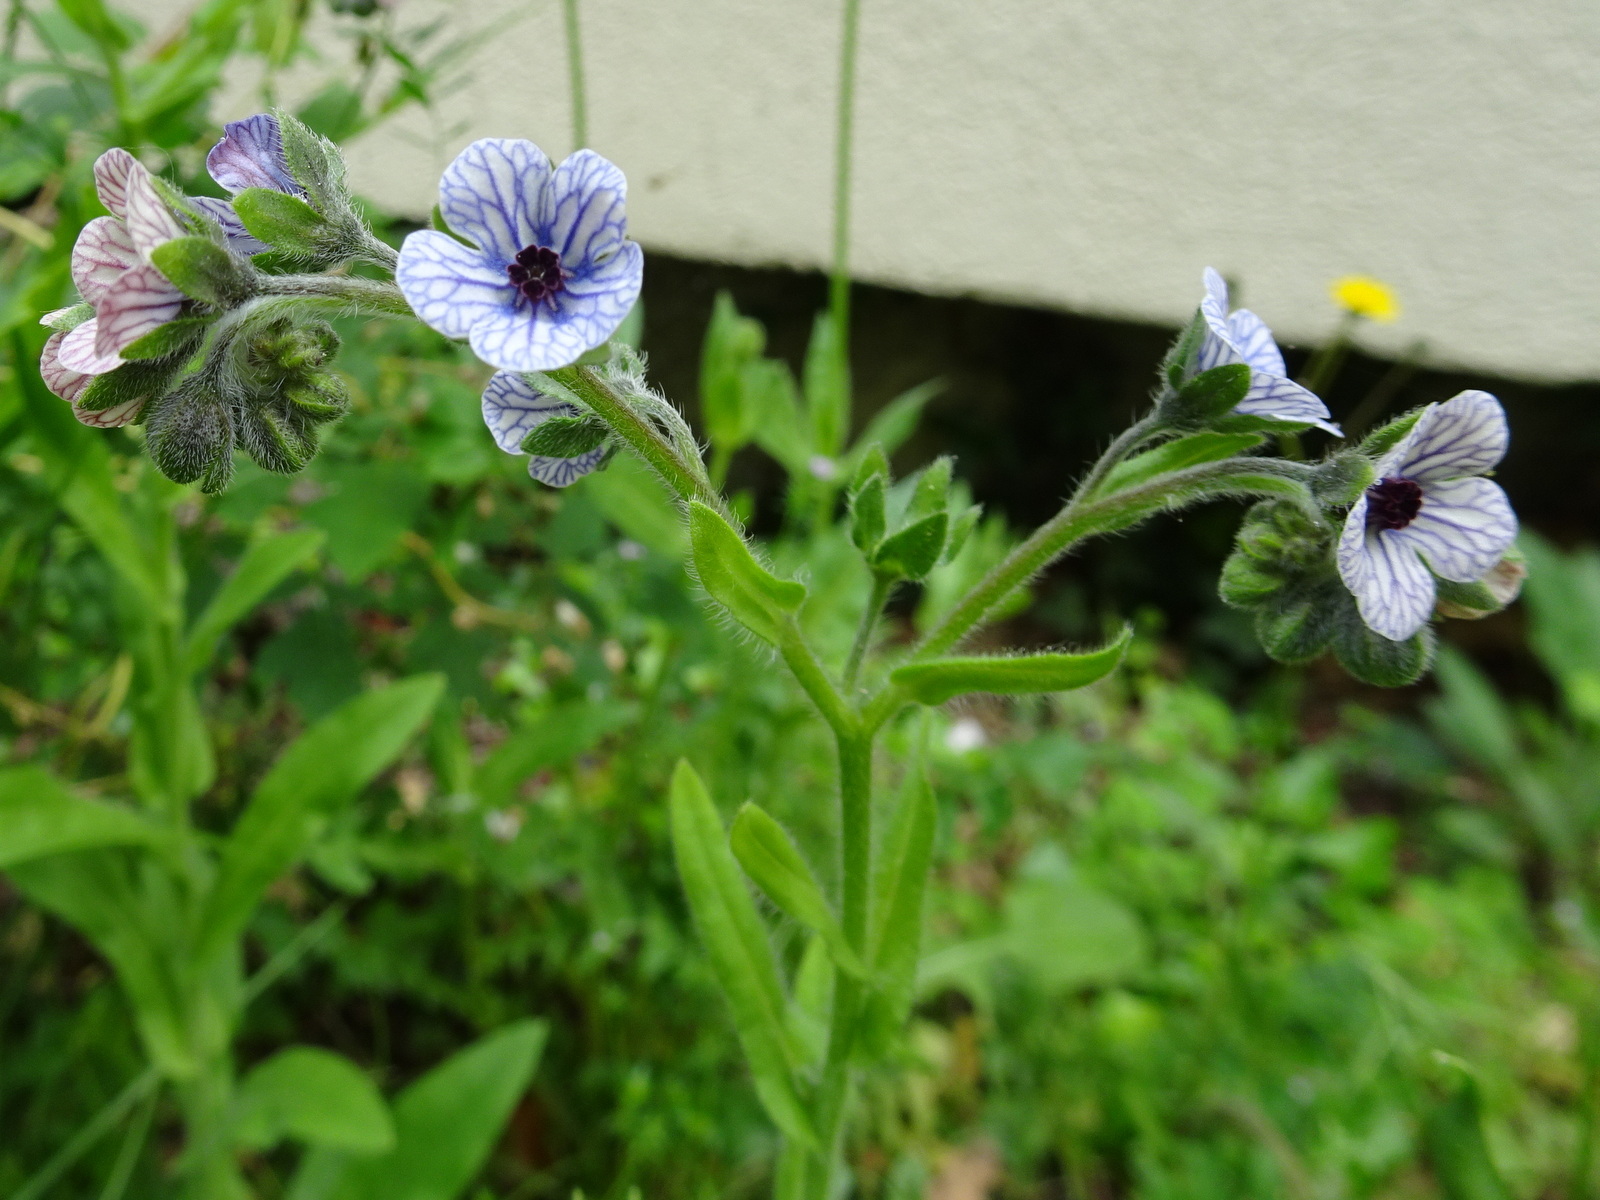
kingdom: Plantae
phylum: Tracheophyta
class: Magnoliopsida
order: Boraginales
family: Boraginaceae
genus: Cynoglossum
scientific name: Cynoglossum creticum
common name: Blue hound's tongue
